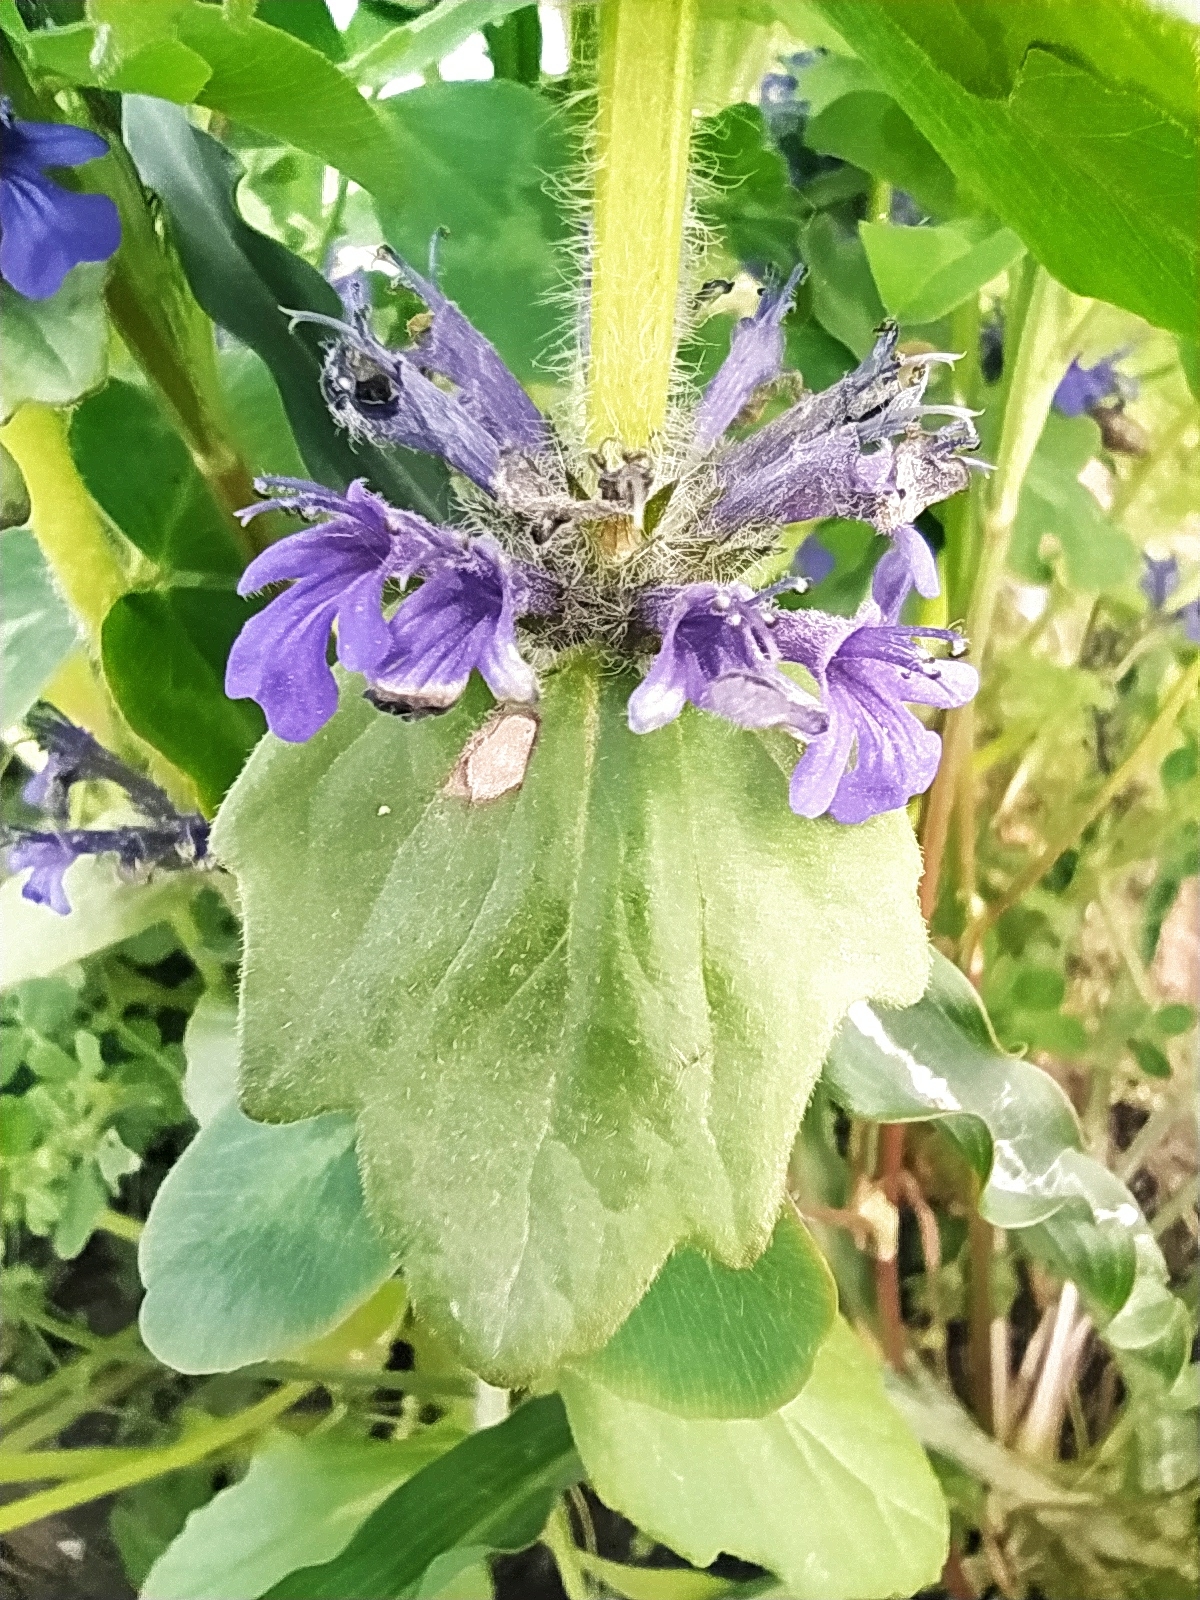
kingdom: Plantae
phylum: Tracheophyta
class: Magnoliopsida
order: Lamiales
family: Lamiaceae
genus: Ajuga
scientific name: Ajuga genevensis
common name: Blue bugle
